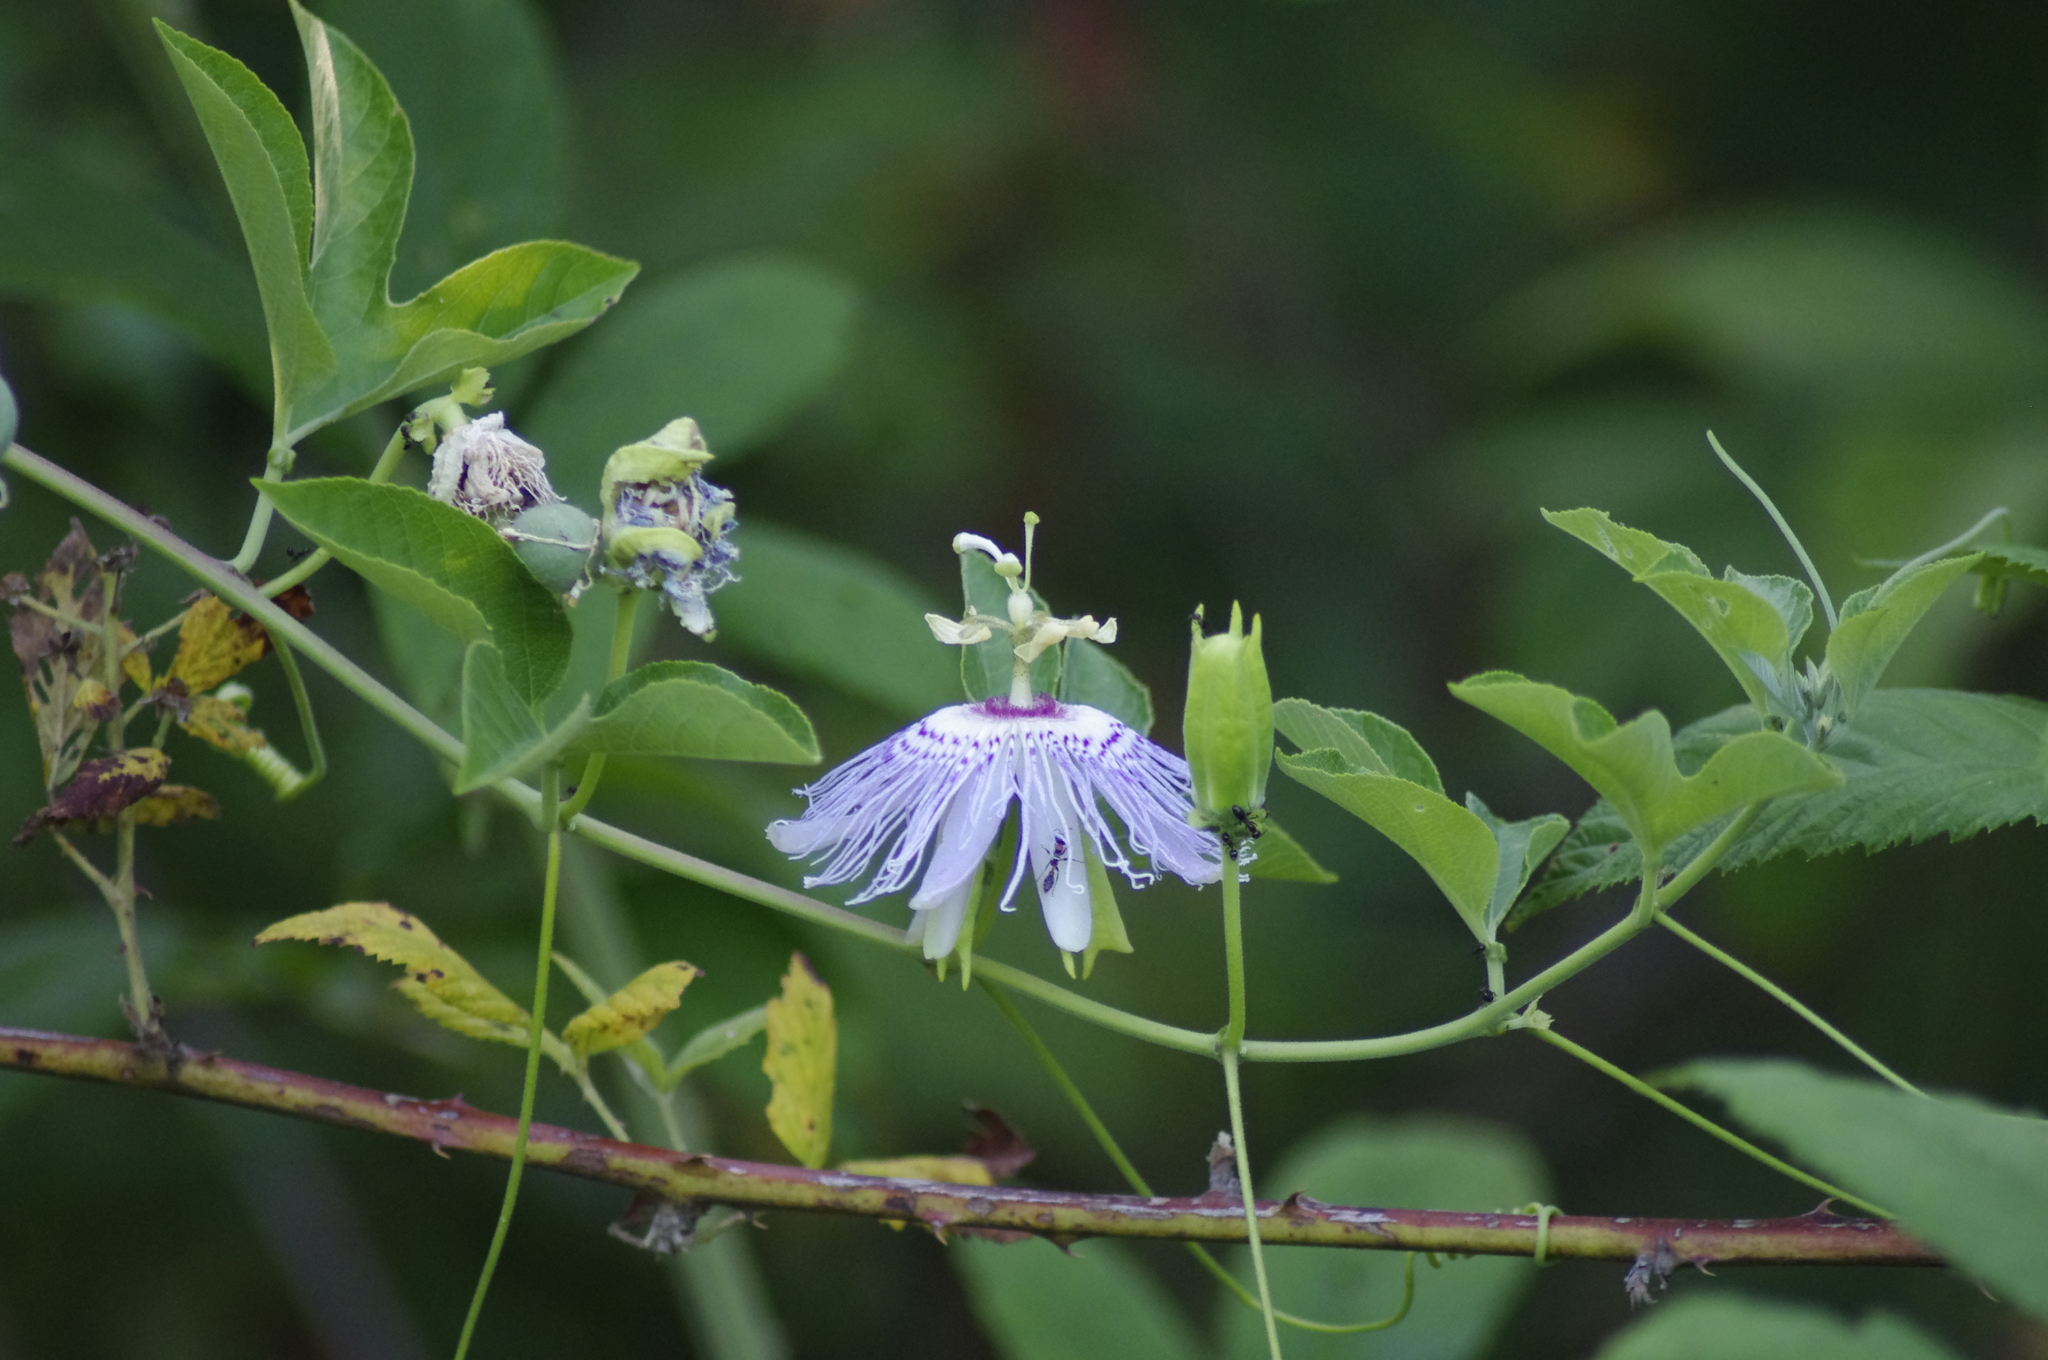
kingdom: Plantae
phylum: Tracheophyta
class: Magnoliopsida
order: Malpighiales
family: Passifloraceae
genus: Passiflora
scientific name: Passiflora incarnata
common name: Apricot-vine
